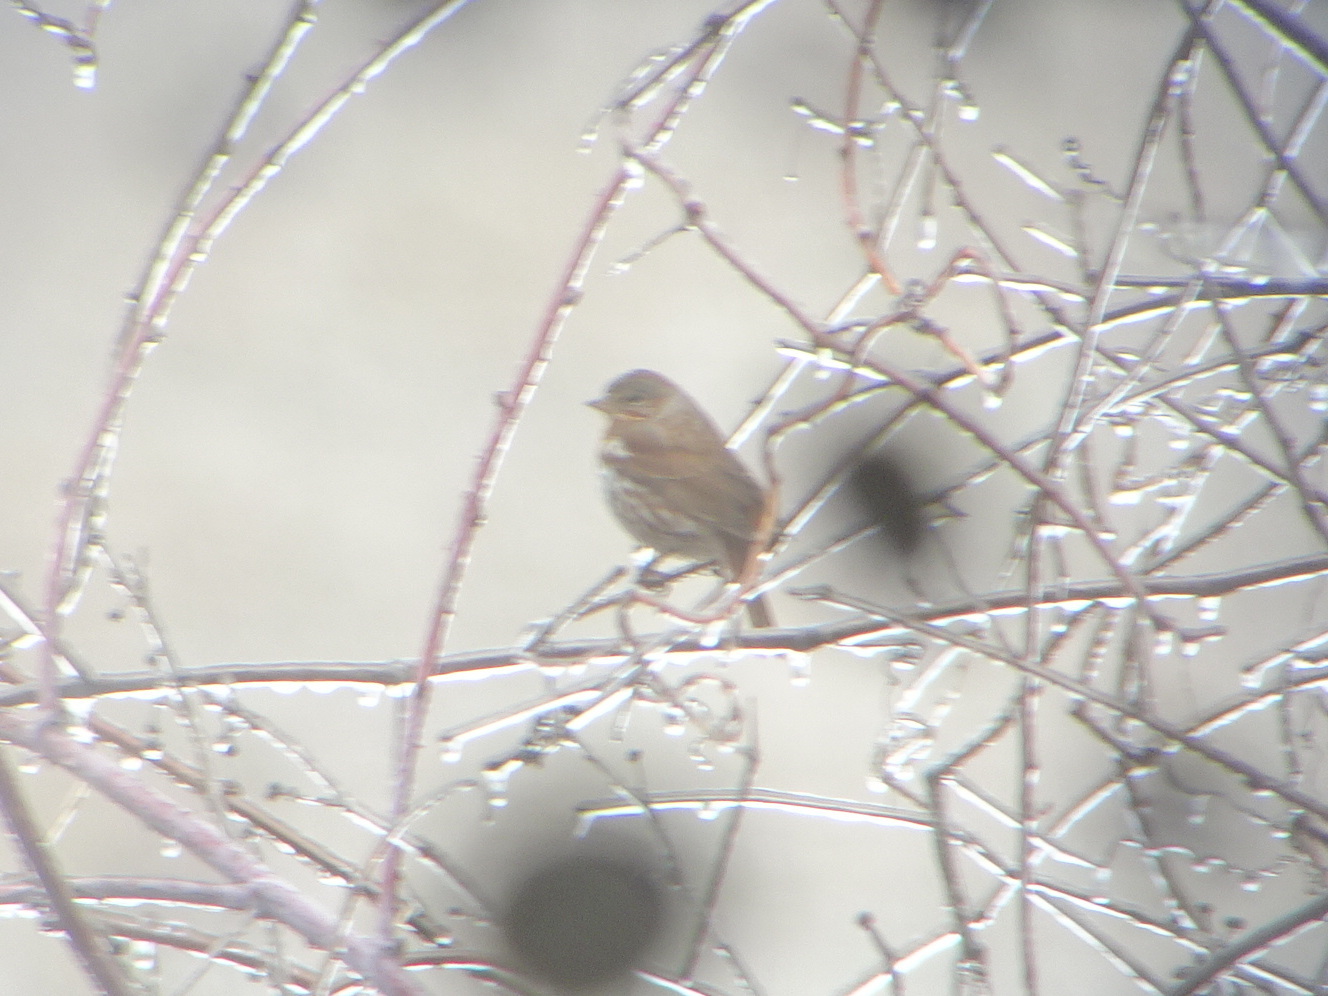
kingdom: Animalia
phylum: Chordata
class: Aves
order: Passeriformes
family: Passerellidae
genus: Passerella
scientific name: Passerella iliaca
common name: Fox sparrow
